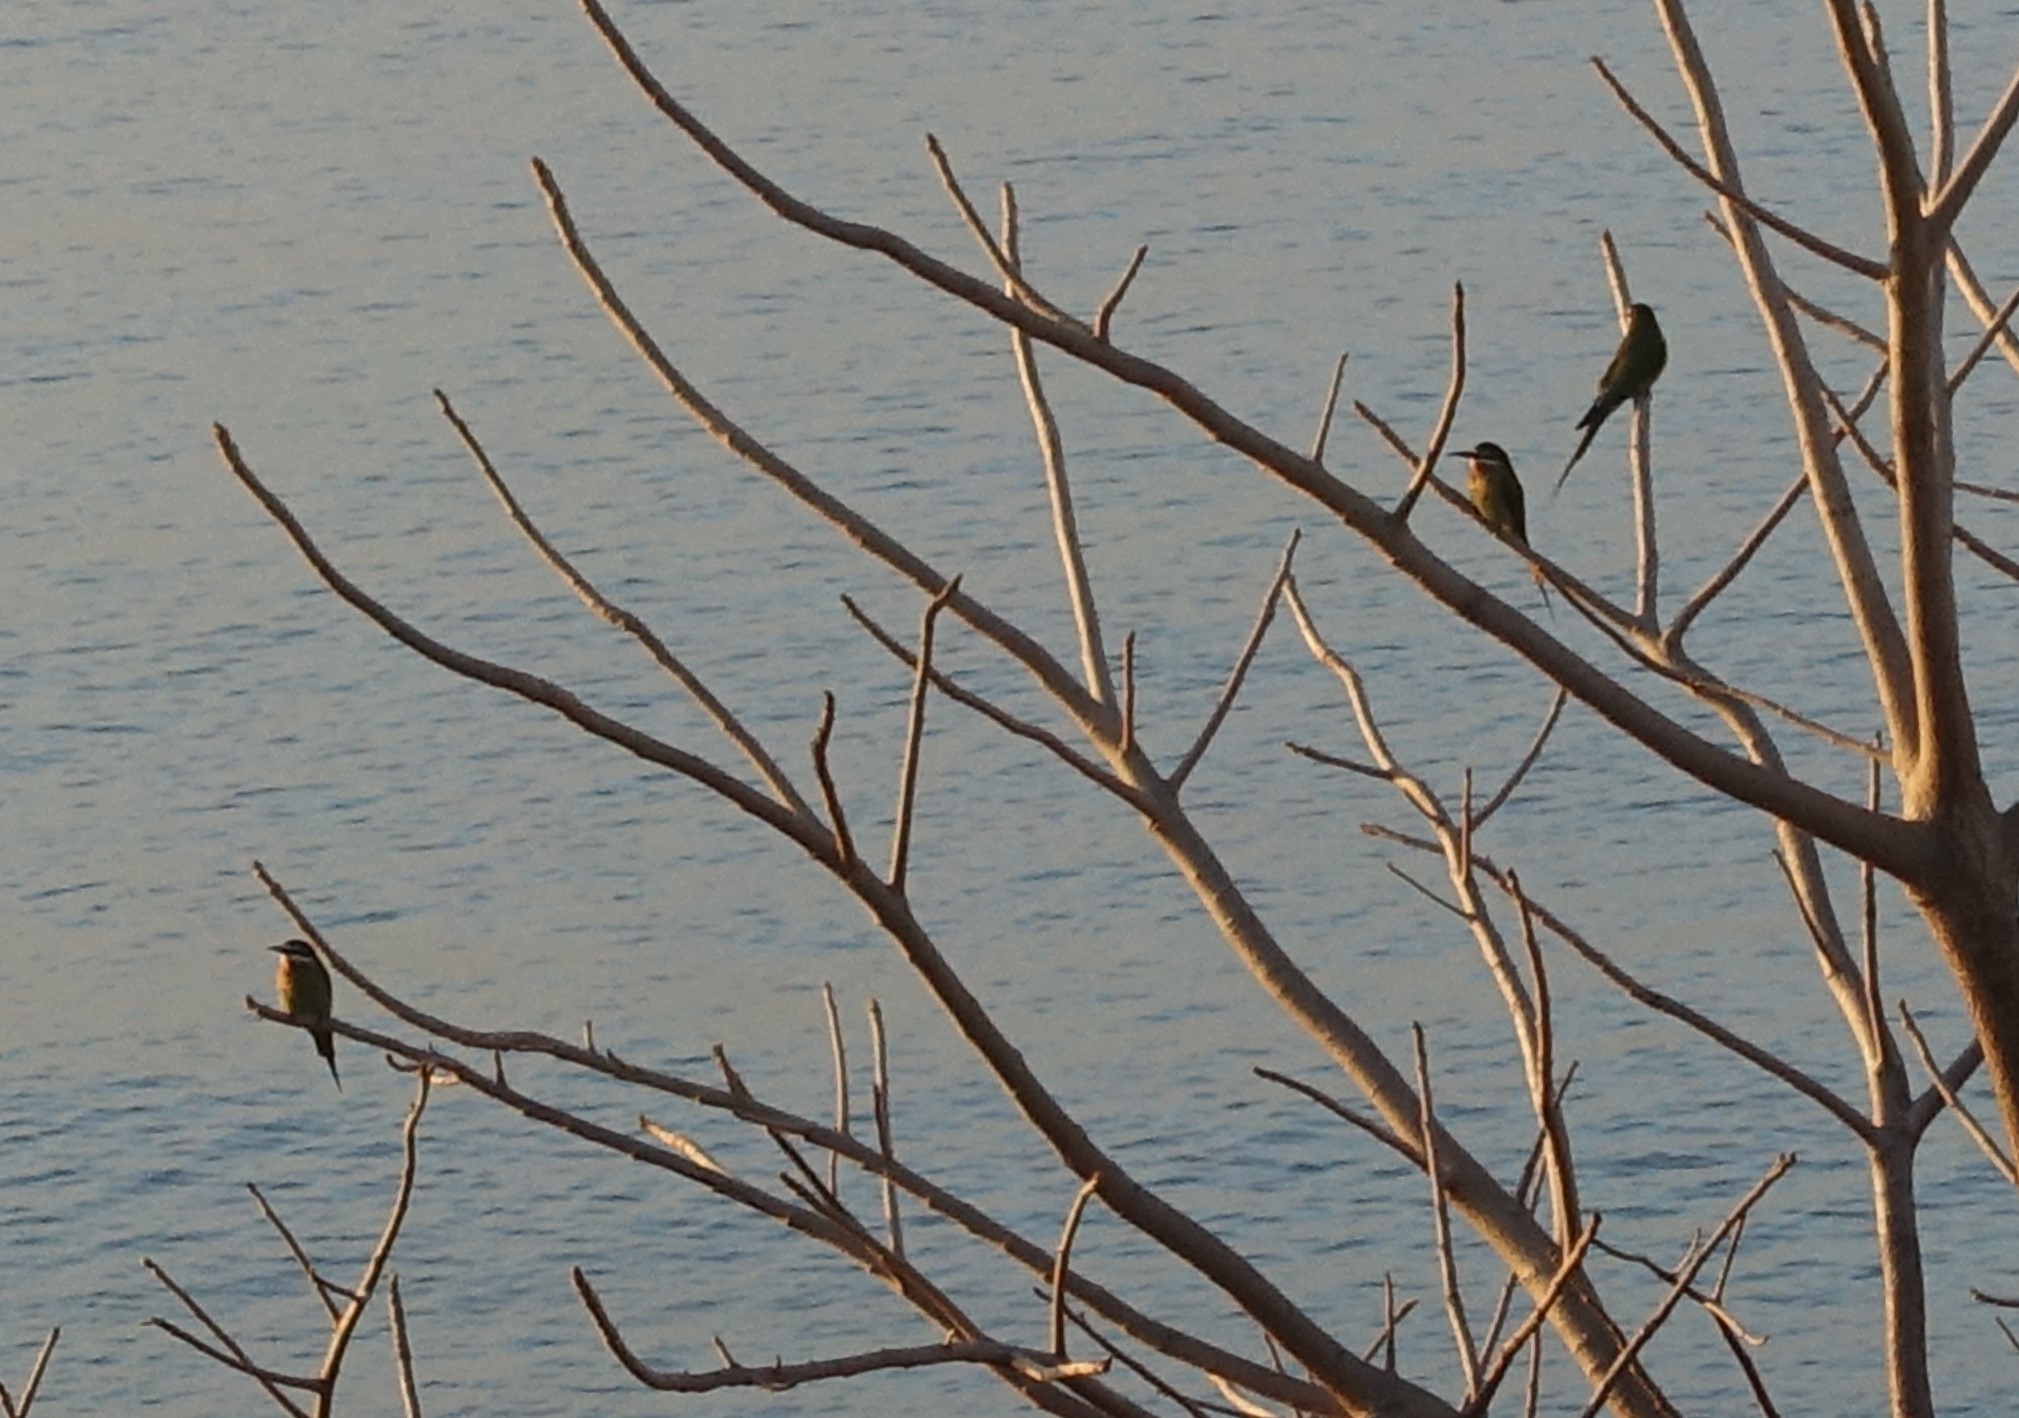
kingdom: Animalia
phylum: Chordata
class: Aves
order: Coraciiformes
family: Meropidae
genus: Merops
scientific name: Merops superciliosus
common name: Olive bee-eater
